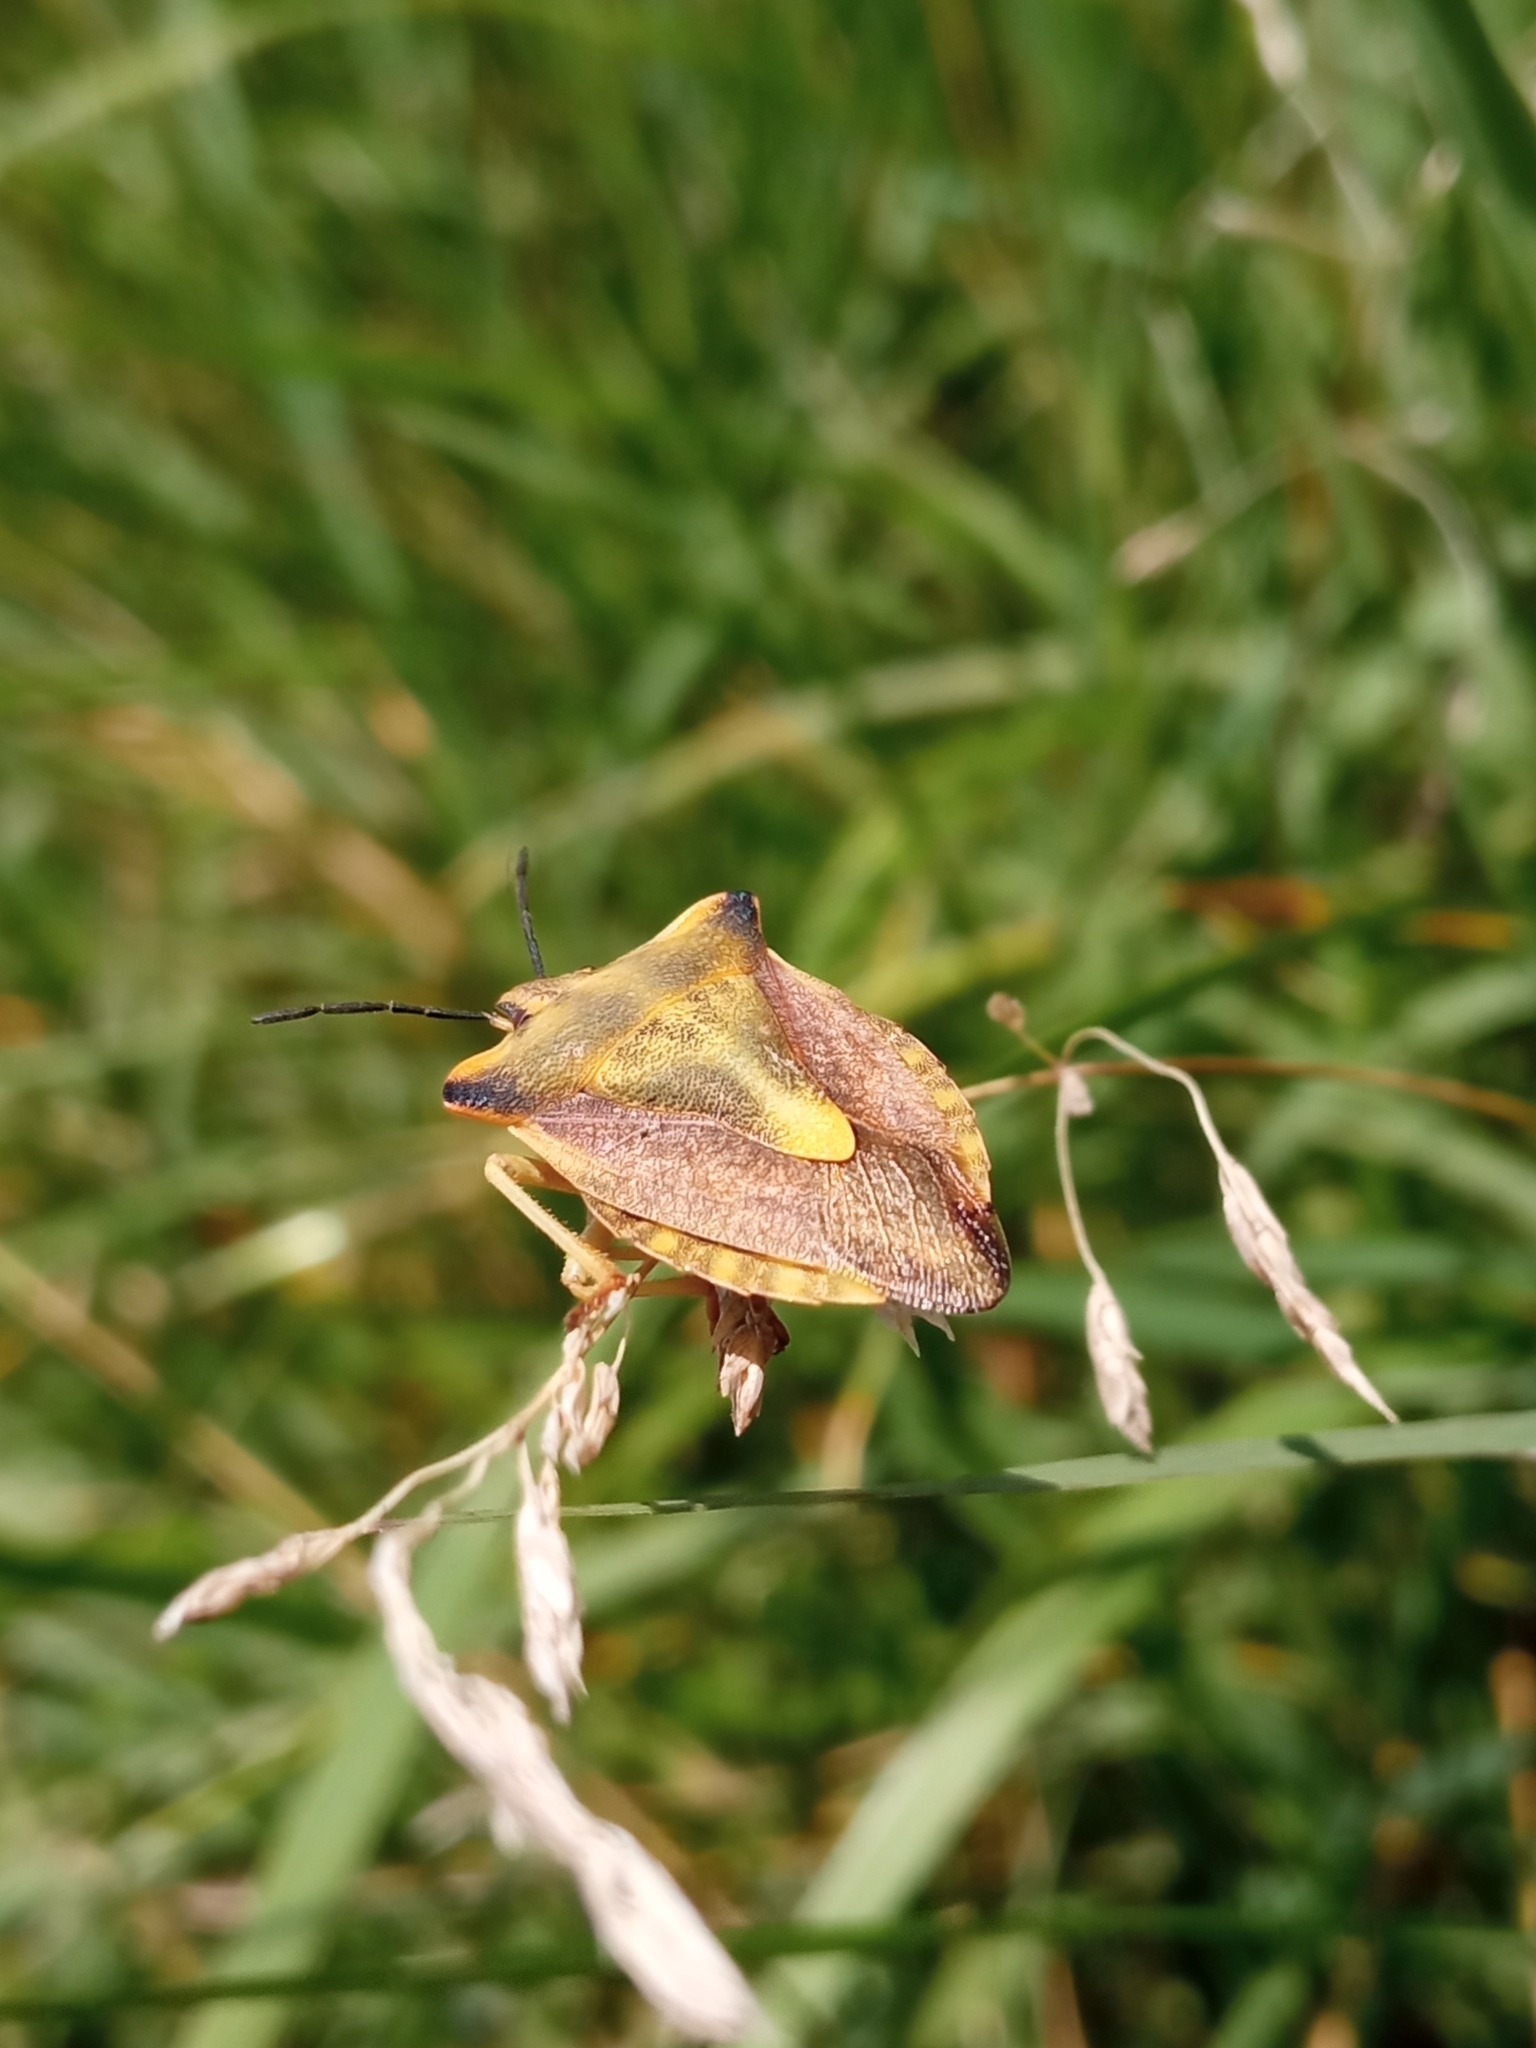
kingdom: Animalia
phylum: Arthropoda
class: Insecta
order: Hemiptera
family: Pentatomidae
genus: Carpocoris
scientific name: Carpocoris fuscispinus
